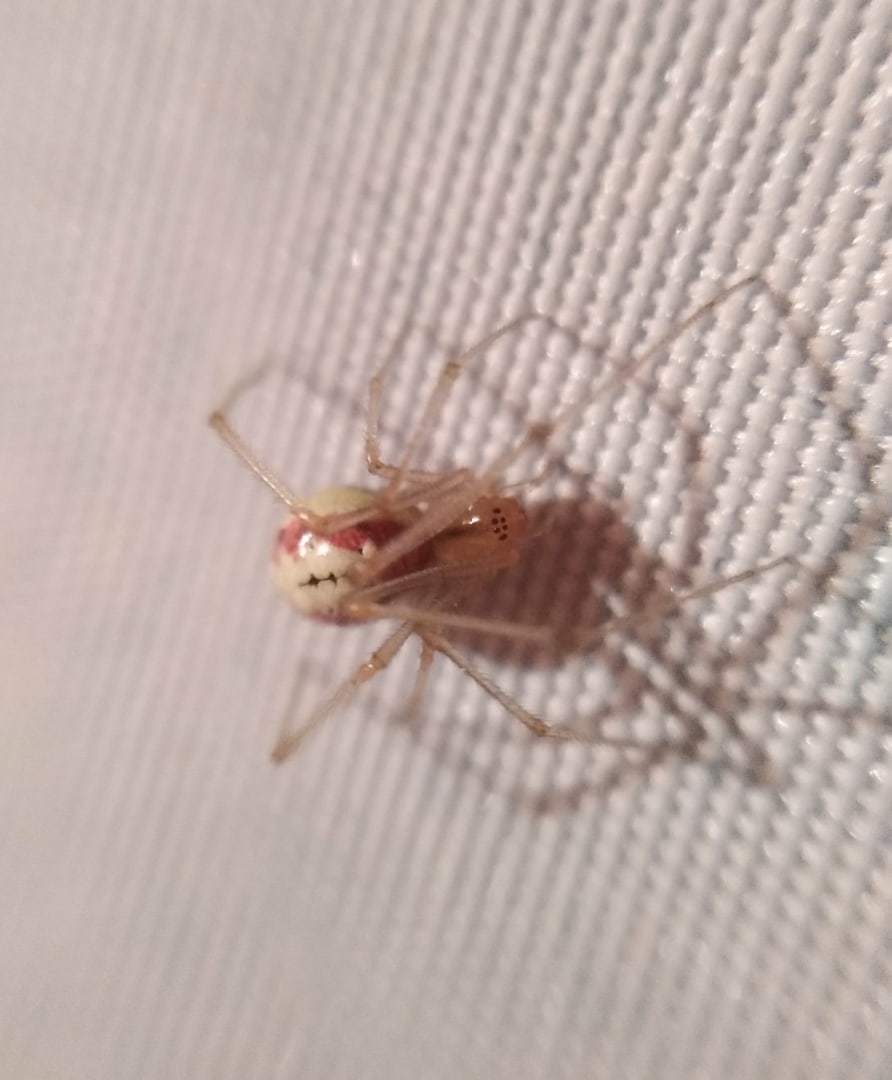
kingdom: Animalia
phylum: Arthropoda
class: Arachnida
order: Araneae
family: Theridiidae
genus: Enoplognatha
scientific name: Enoplognatha ovata
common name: Common candy-striped spider
